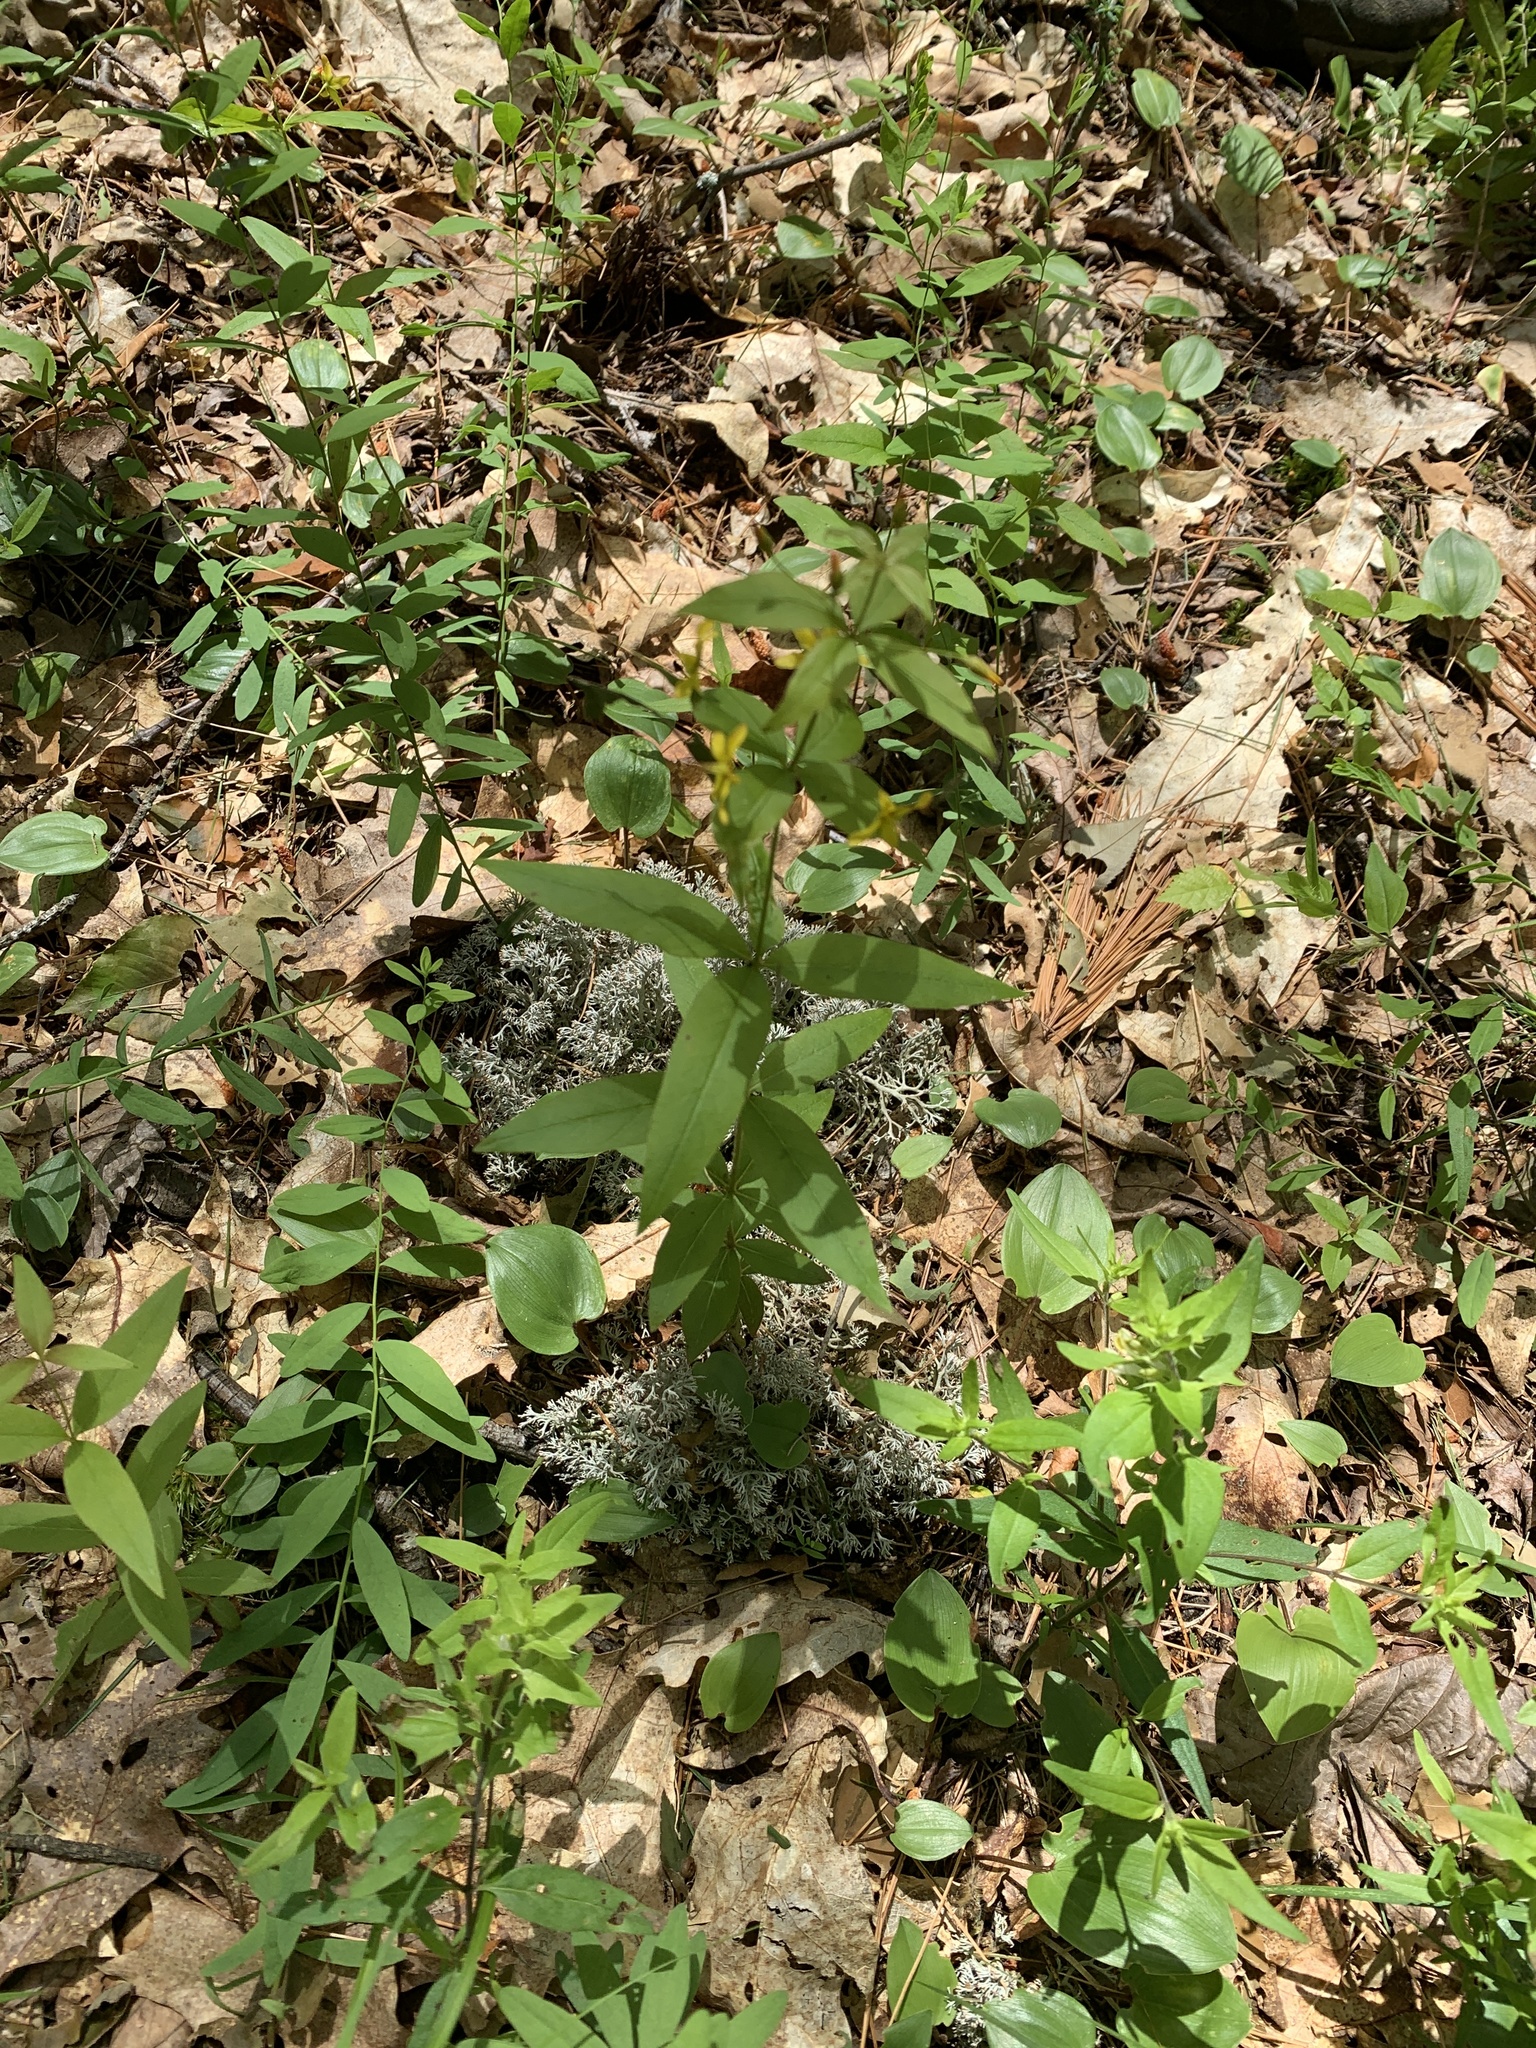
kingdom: Plantae
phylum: Tracheophyta
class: Magnoliopsida
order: Ericales
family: Primulaceae
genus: Lysimachia
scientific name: Lysimachia quadrifolia
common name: Whorled loosestrife
